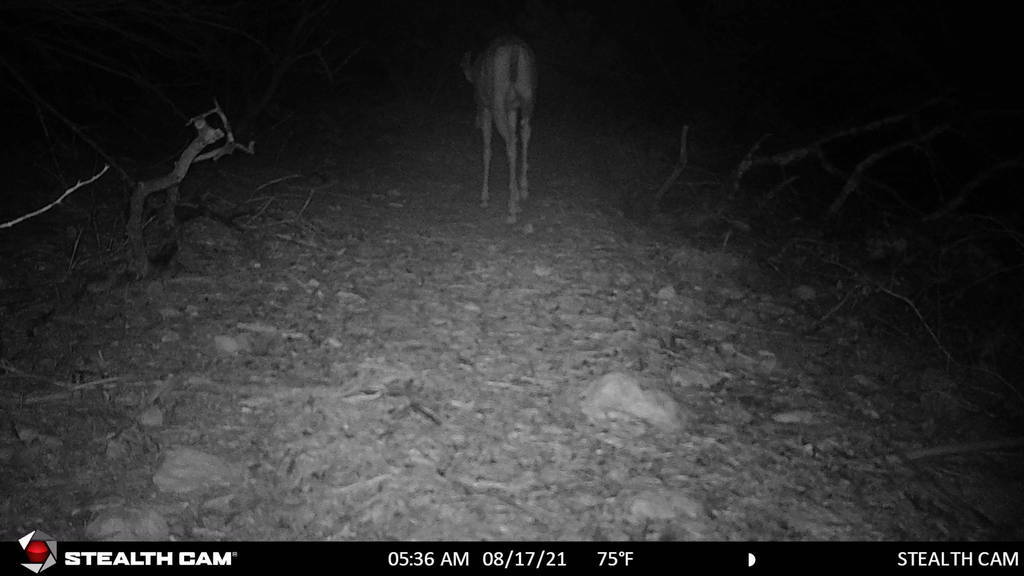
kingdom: Animalia
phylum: Chordata
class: Mammalia
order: Artiodactyla
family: Cervidae
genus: Odocoileus
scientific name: Odocoileus virginianus
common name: White-tailed deer
